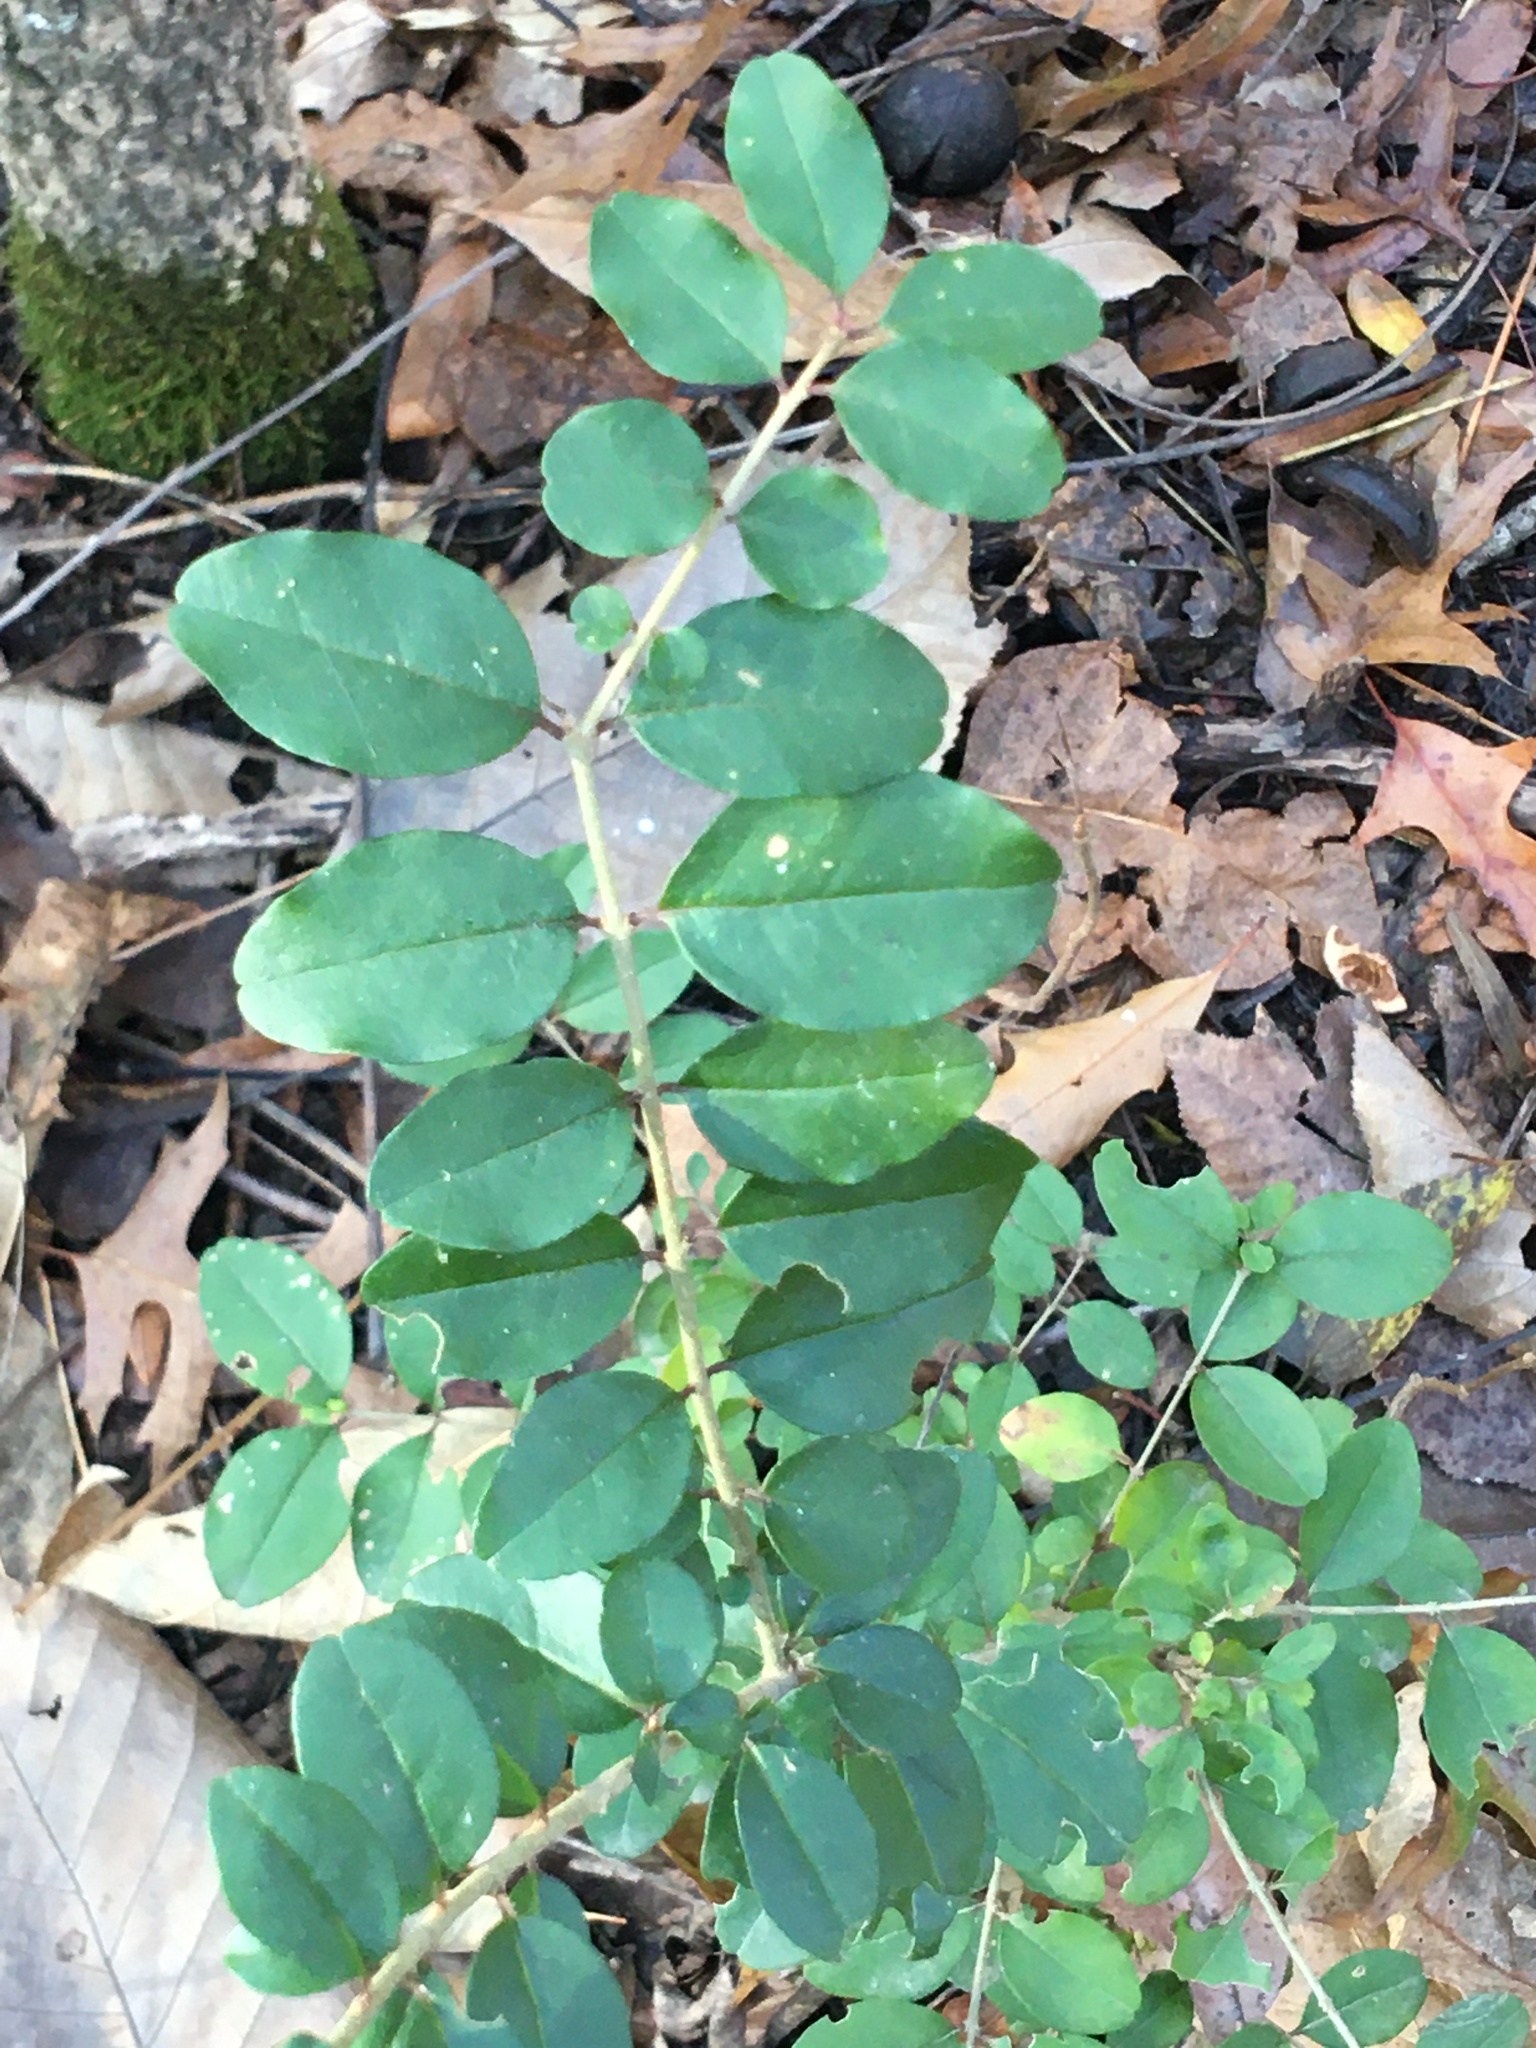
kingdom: Plantae
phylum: Tracheophyta
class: Magnoliopsida
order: Lamiales
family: Oleaceae
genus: Ligustrum
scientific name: Ligustrum sinense
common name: Chinese privet
